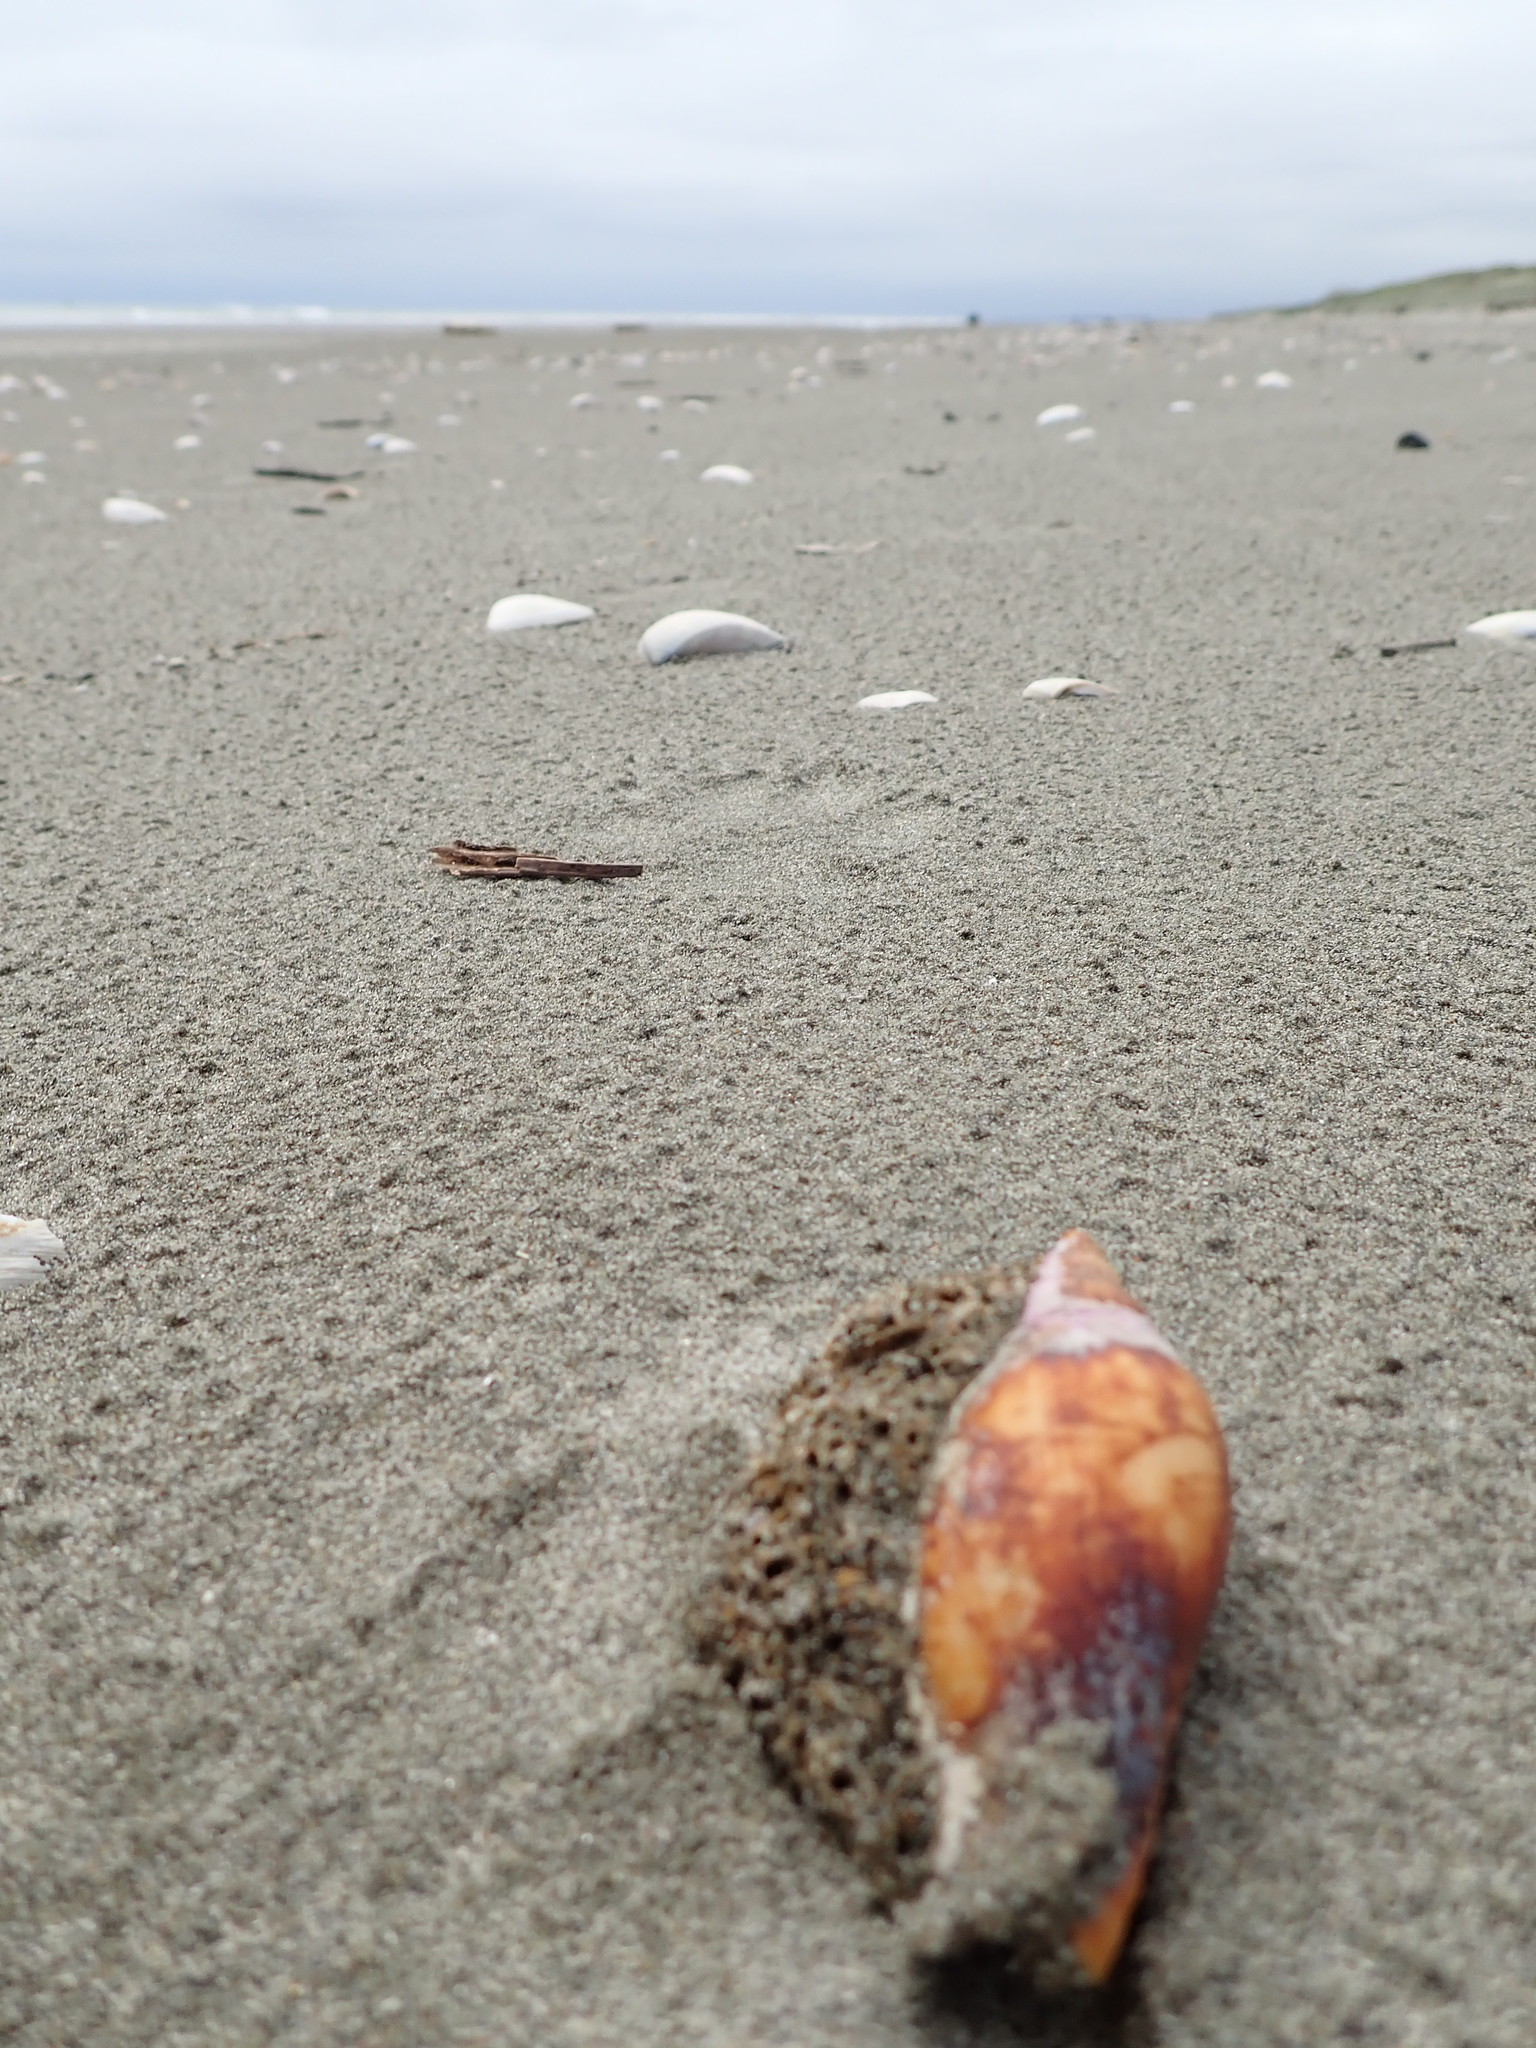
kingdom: Animalia
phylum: Mollusca
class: Gastropoda
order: Neogastropoda
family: Volutidae
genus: Alcithoe
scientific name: Alcithoe fusus
